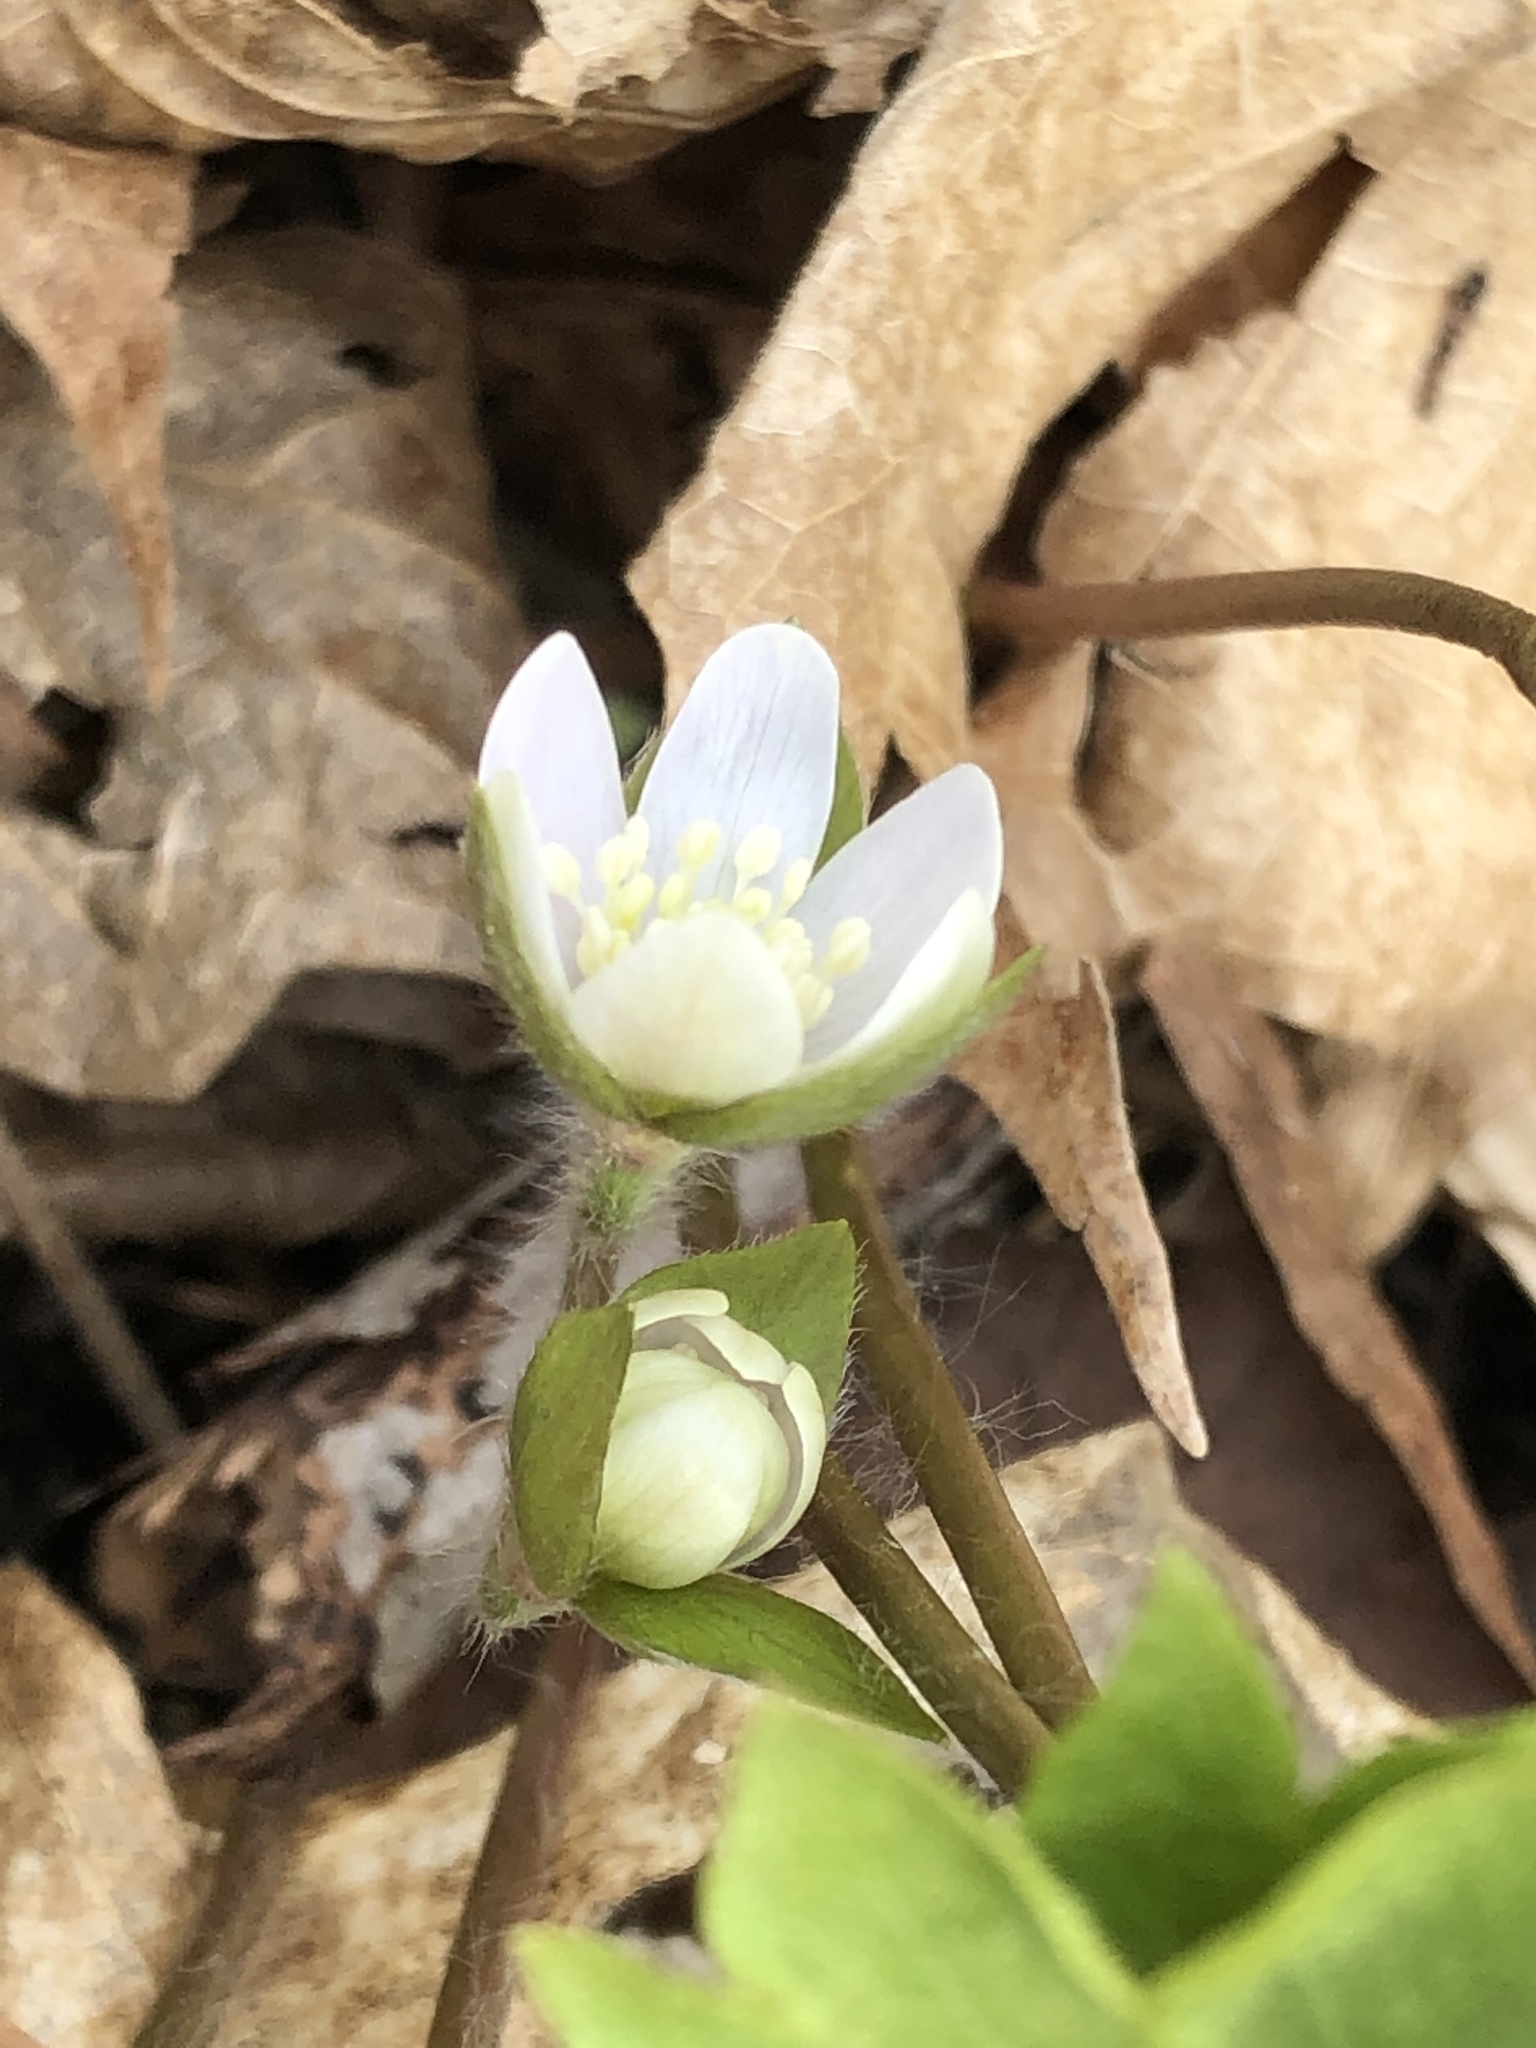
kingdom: Plantae
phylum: Tracheophyta
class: Magnoliopsida
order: Ranunculales
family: Ranunculaceae
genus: Hepatica
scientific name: Hepatica acutiloba
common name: Sharp-lobed hepatica
